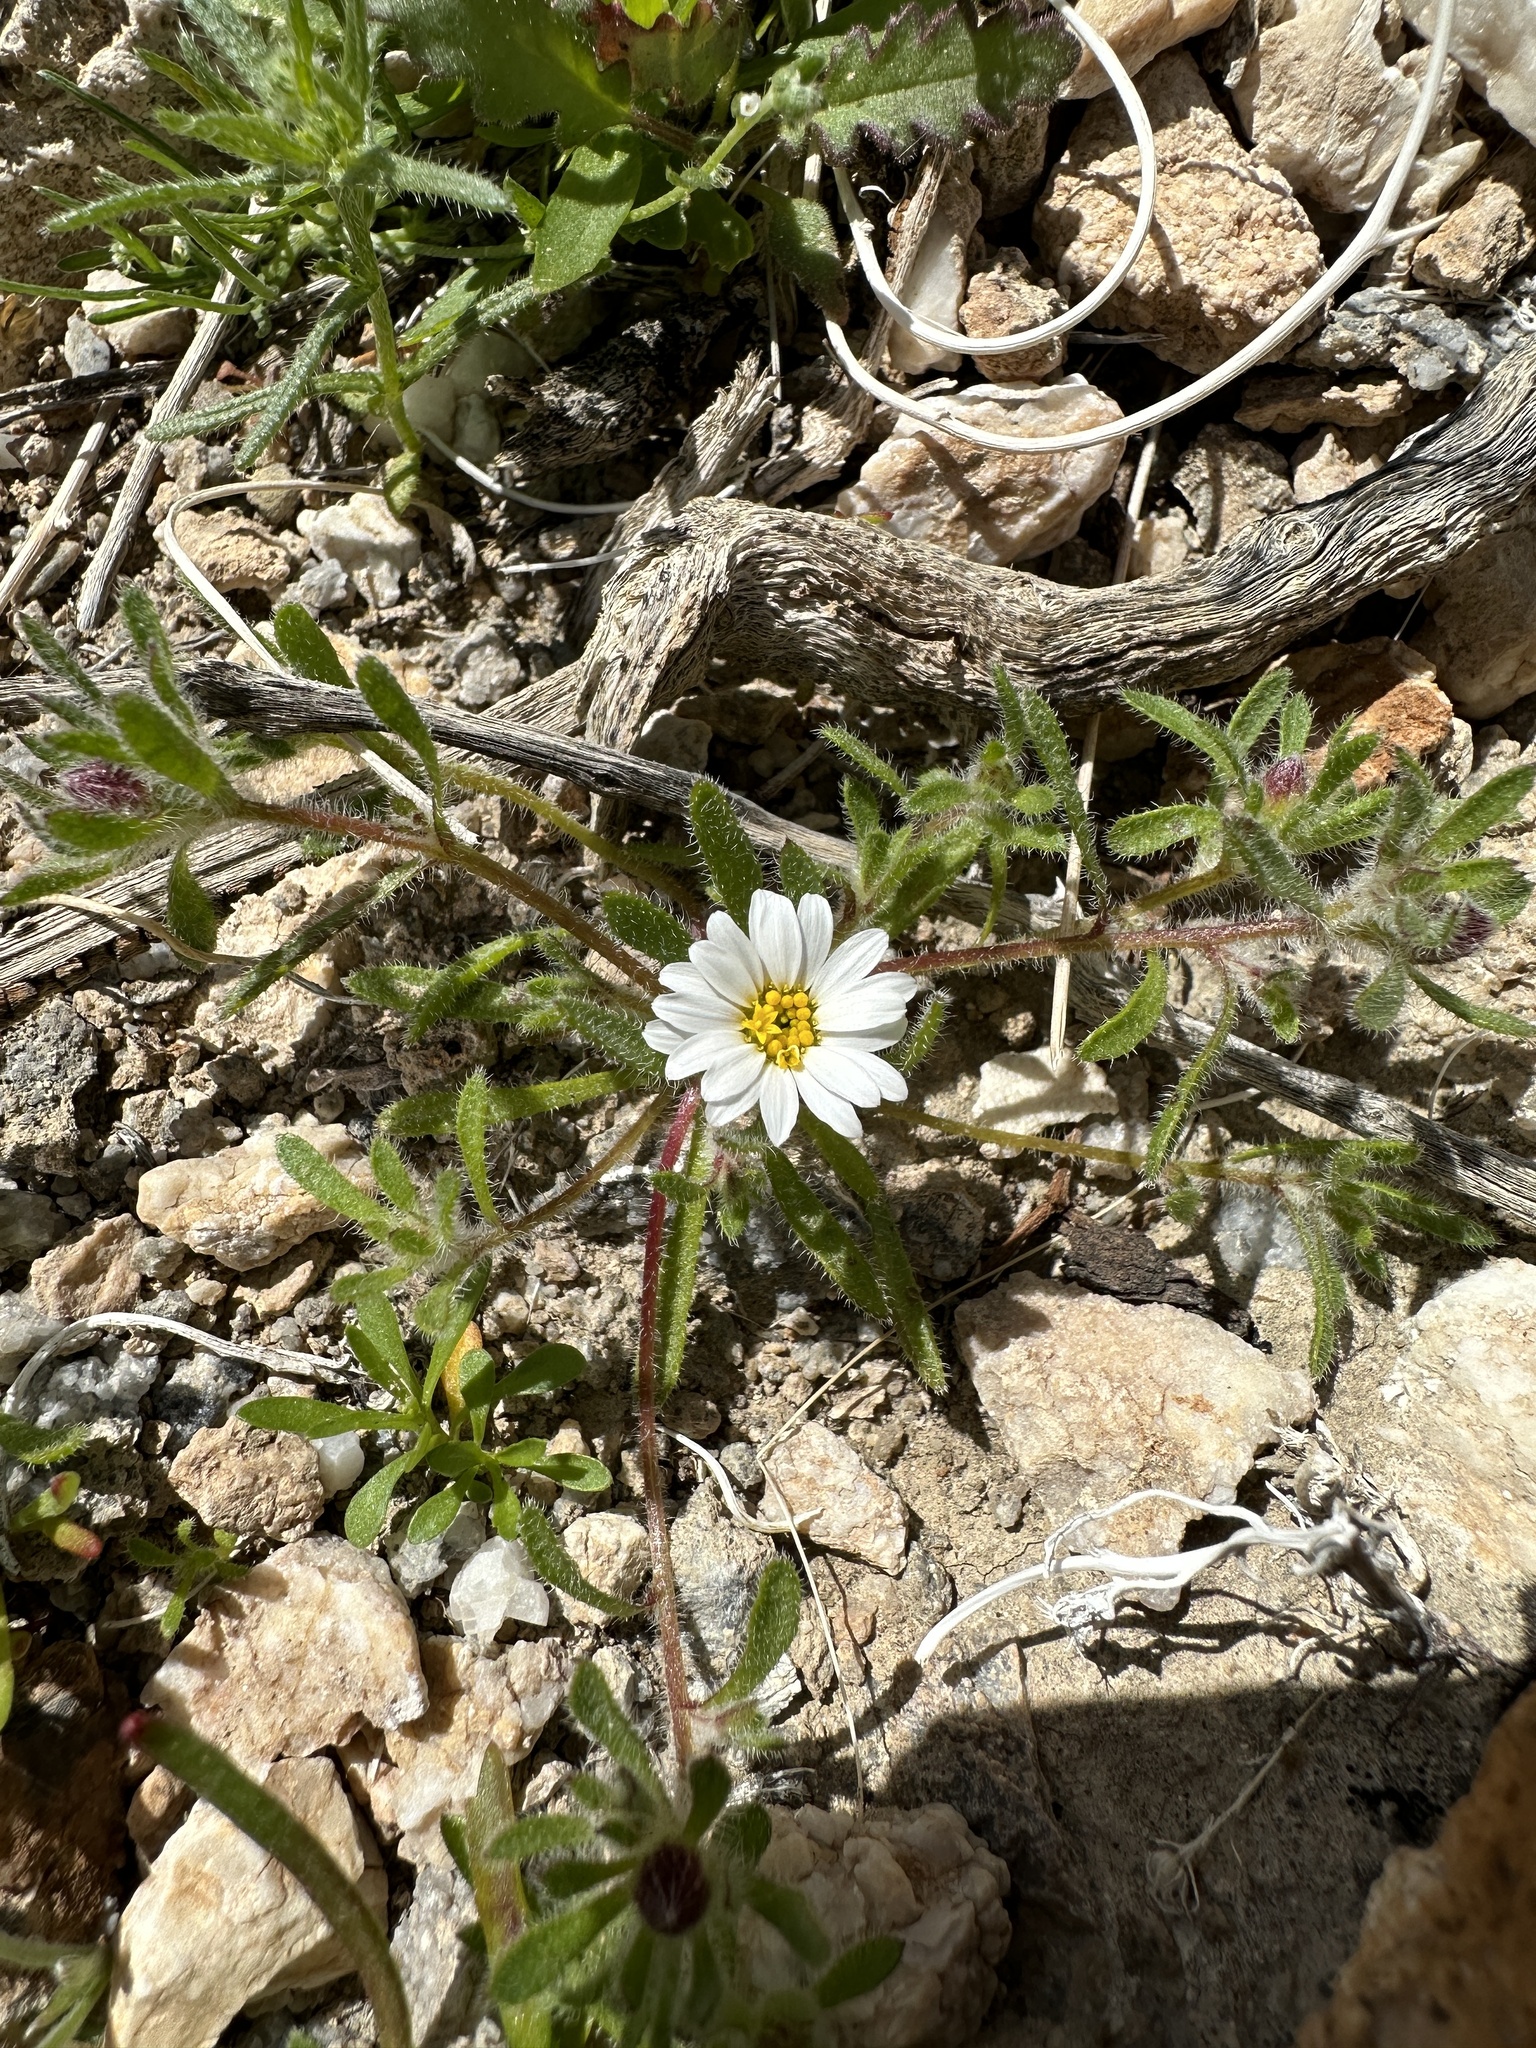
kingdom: Plantae
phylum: Tracheophyta
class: Magnoliopsida
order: Asterales
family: Asteraceae
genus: Monoptilon
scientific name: Monoptilon bellioides
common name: Bristly desertstar
